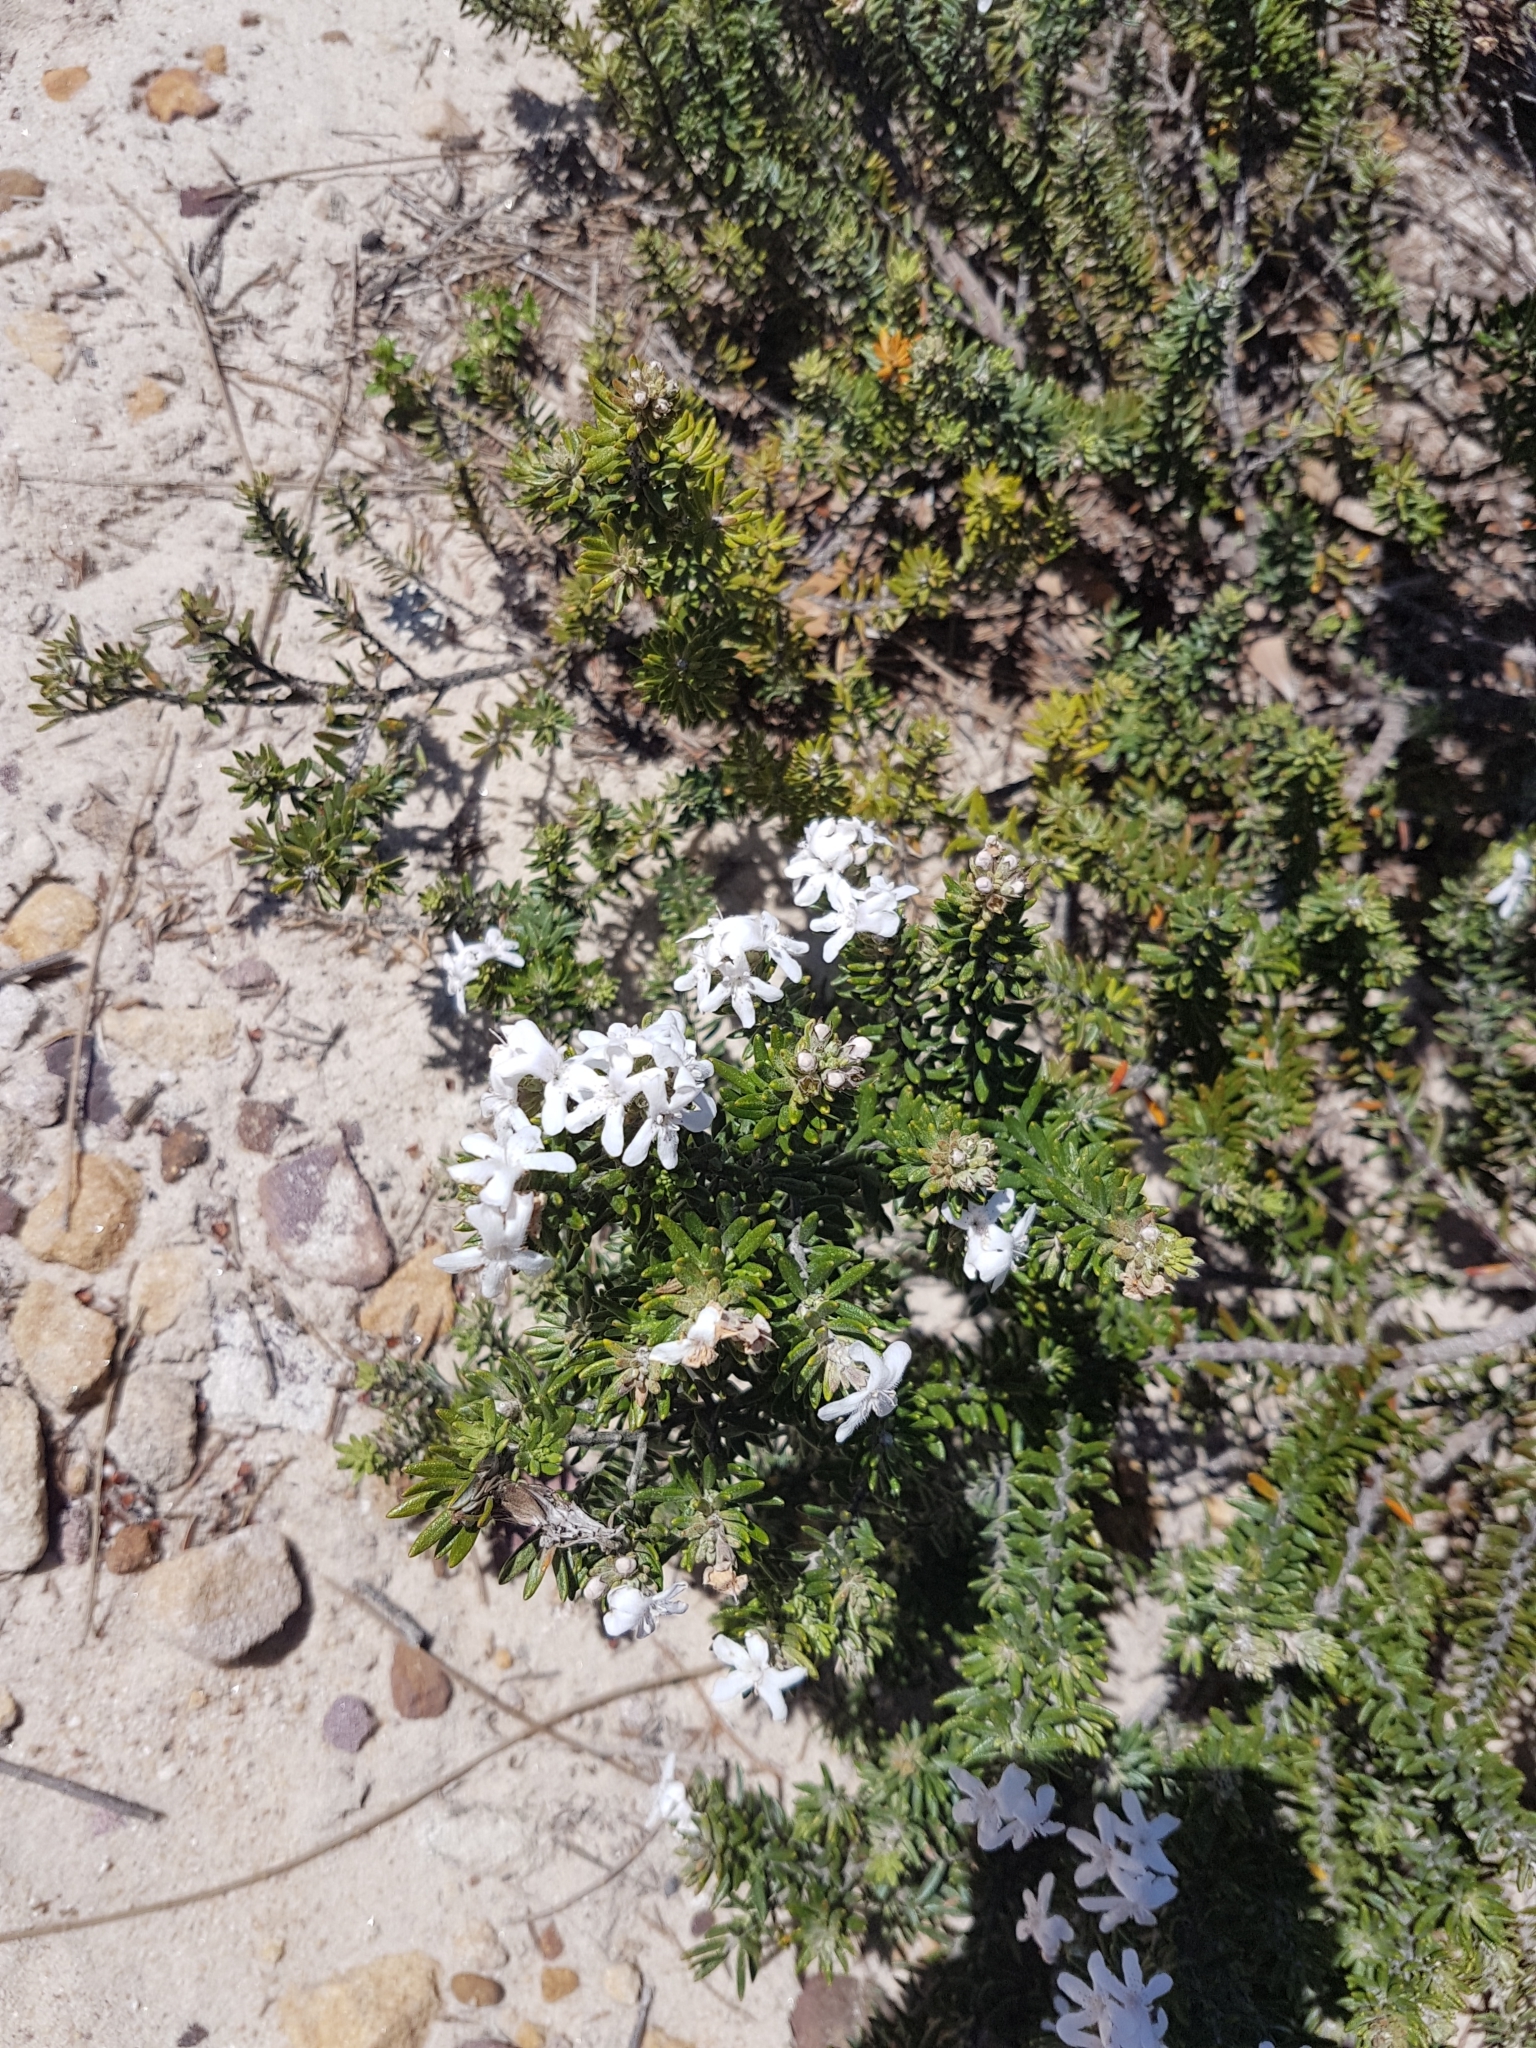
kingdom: Plantae
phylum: Tracheophyta
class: Magnoliopsida
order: Lamiales
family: Lamiaceae
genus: Westringia
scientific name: Westringia fruticosa
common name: Coastal-rosemary
